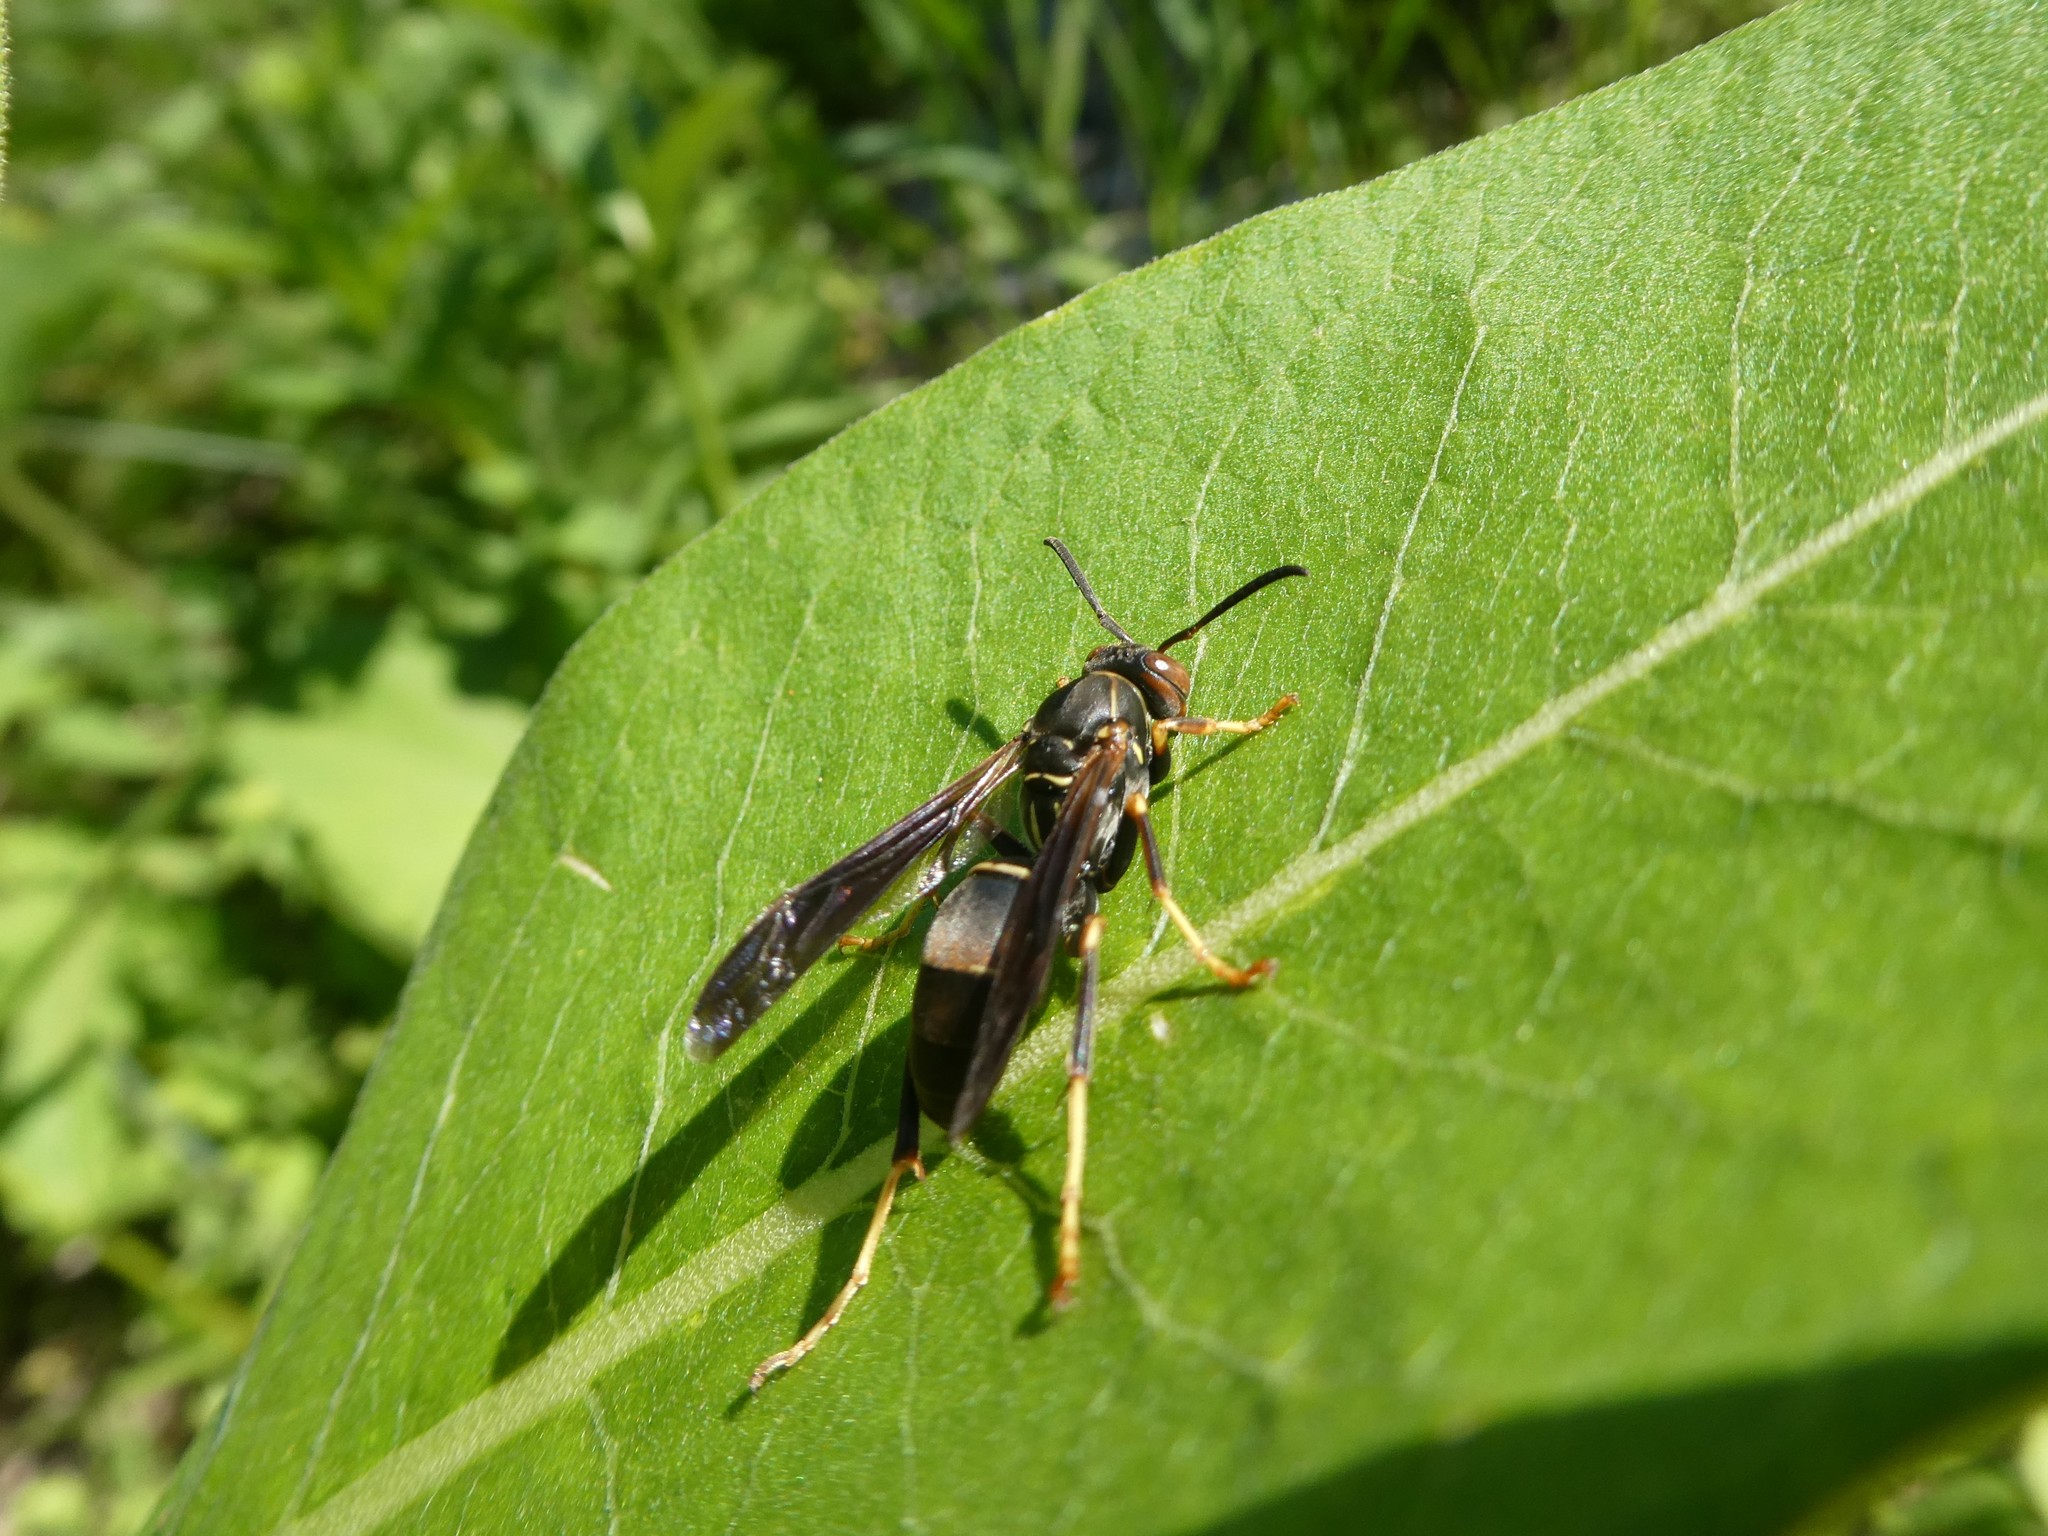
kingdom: Animalia
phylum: Arthropoda
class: Insecta
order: Hymenoptera
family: Eumenidae
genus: Polistes
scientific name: Polistes fuscatus
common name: Dark paper wasp
